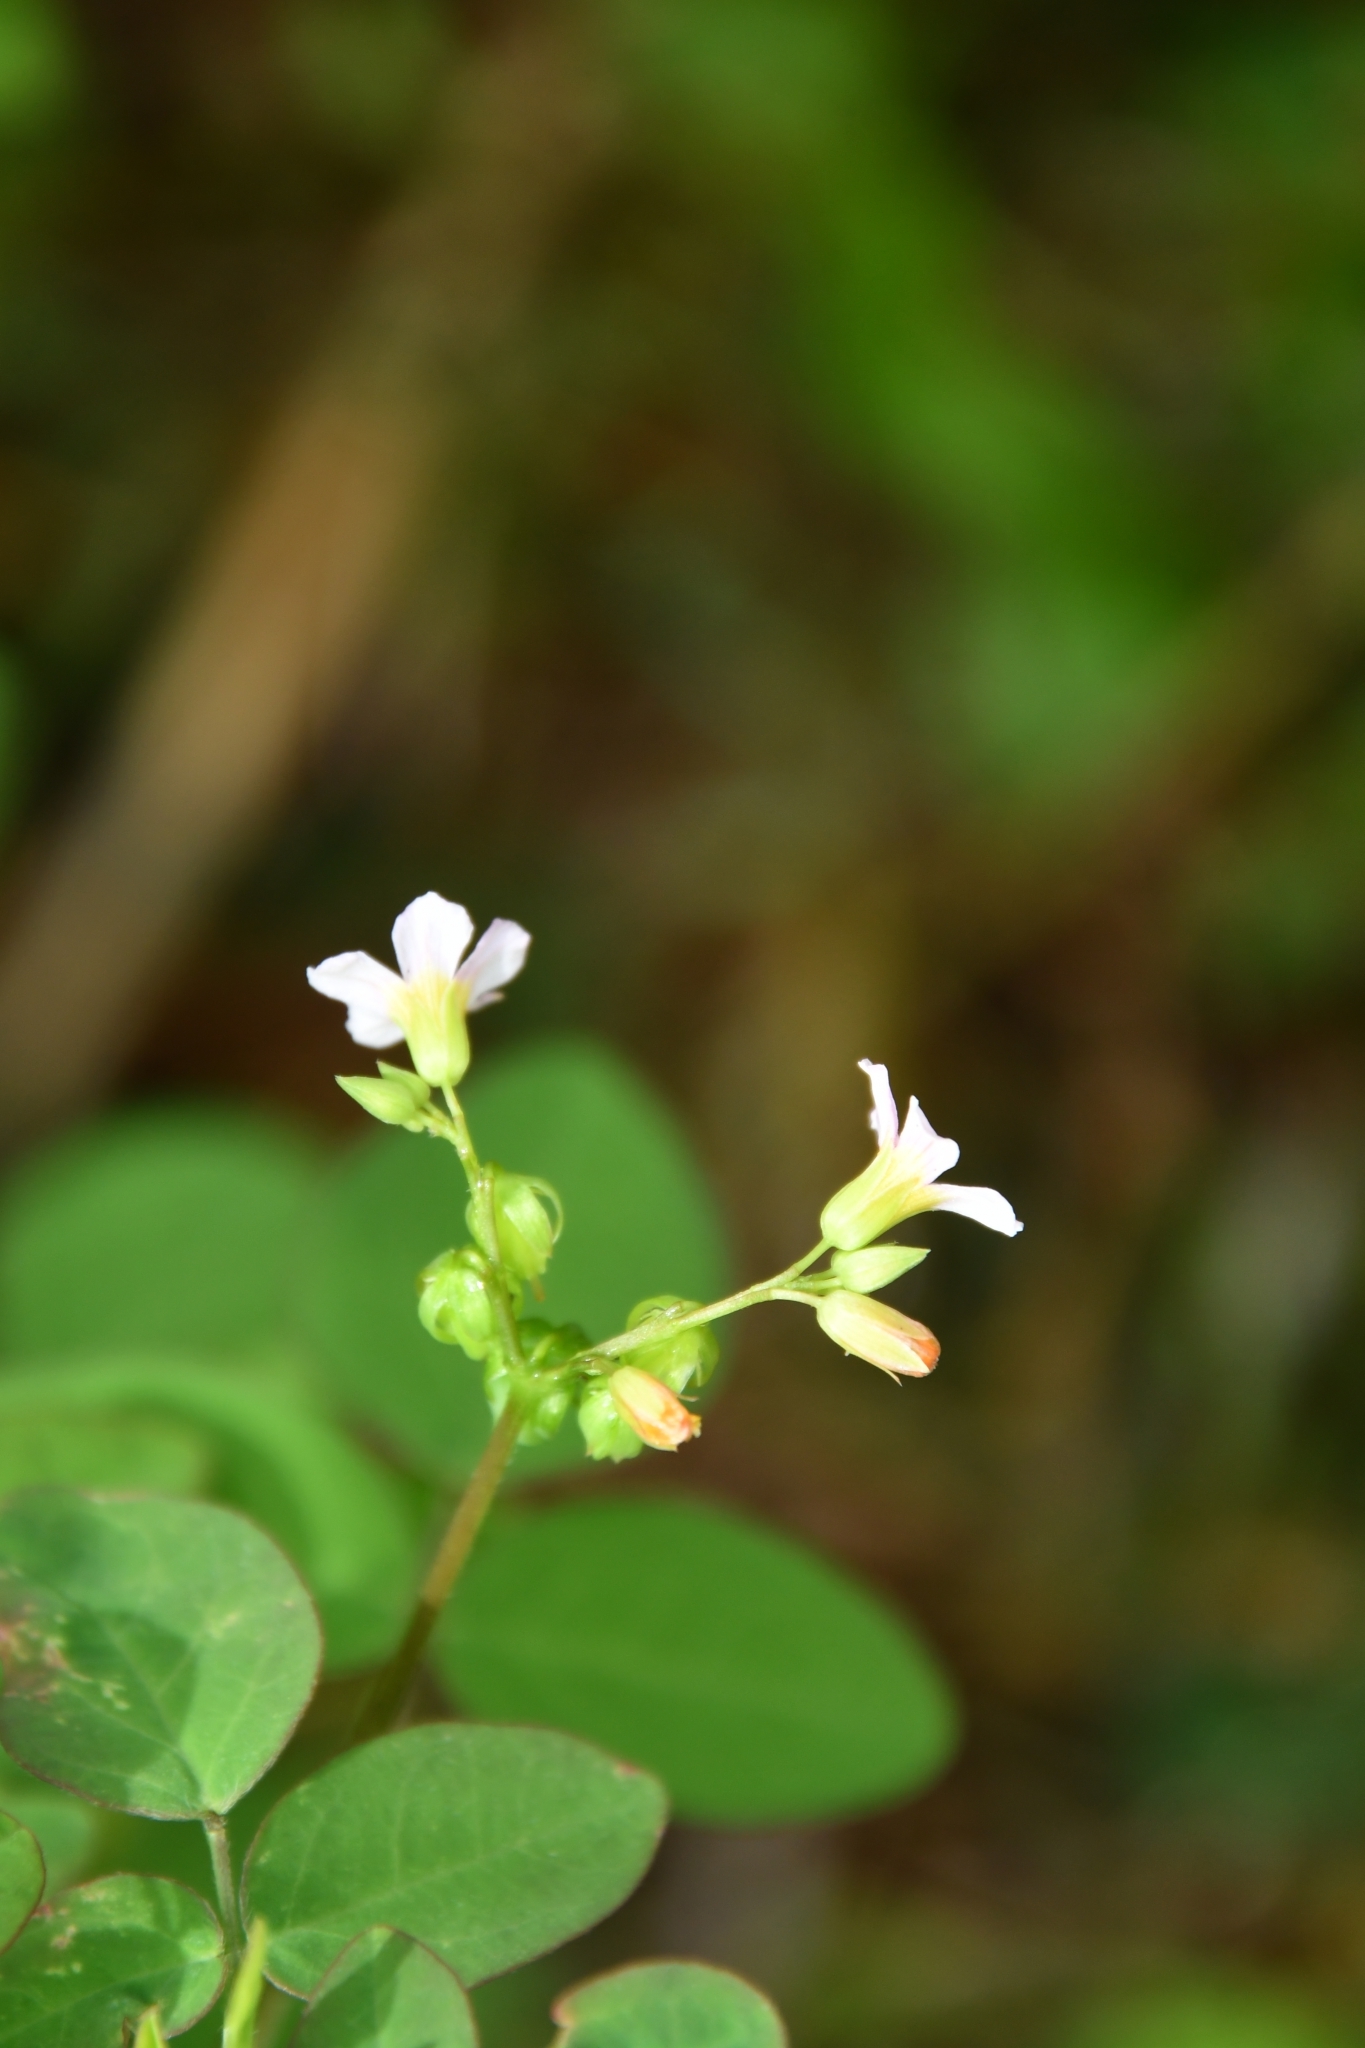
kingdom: Plantae
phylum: Tracheophyta
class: Magnoliopsida
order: Oxalidales
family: Oxalidaceae
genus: Oxalis
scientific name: Oxalis barrelieri
